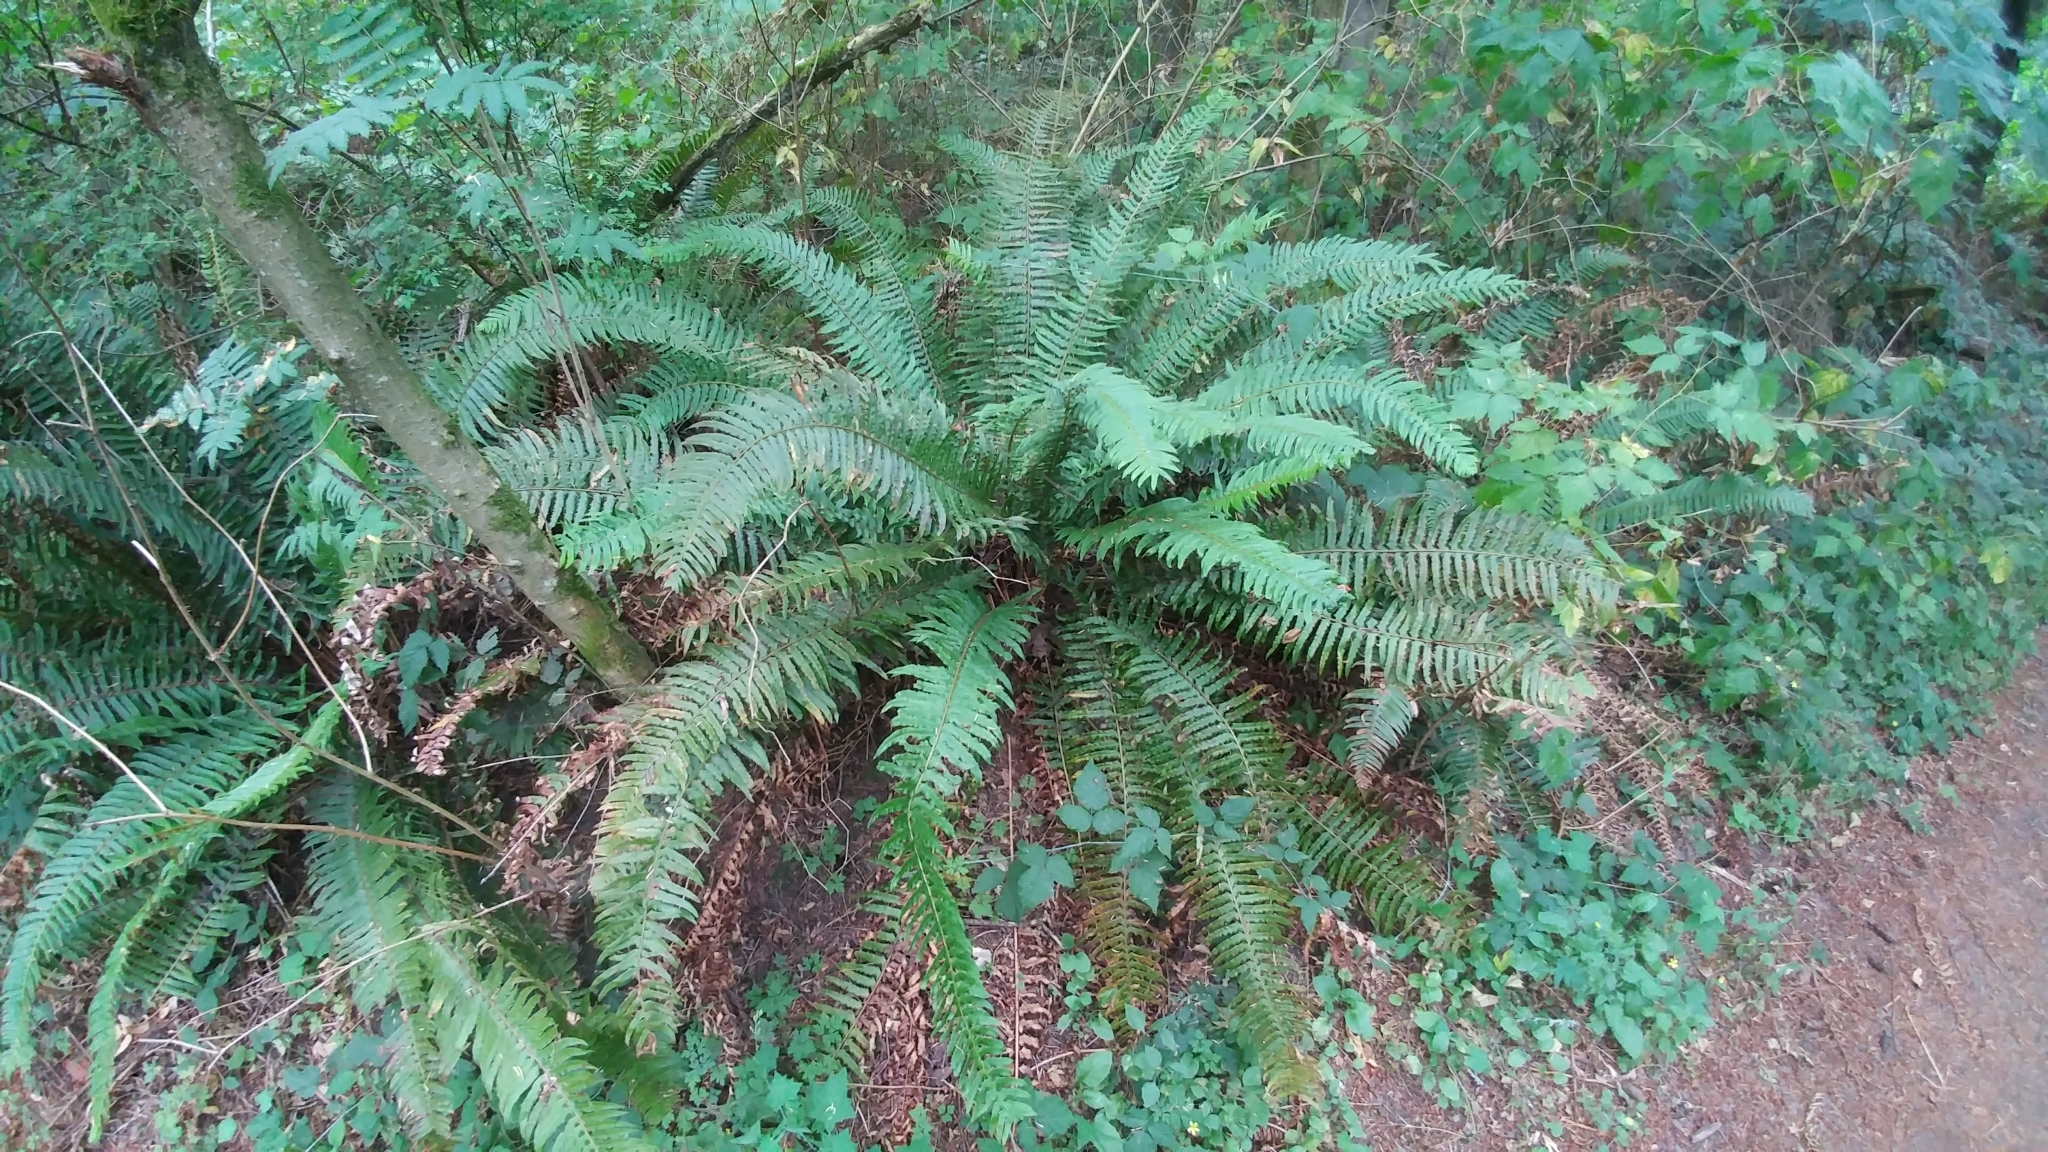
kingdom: Plantae
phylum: Tracheophyta
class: Polypodiopsida
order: Polypodiales
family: Dryopteridaceae
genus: Polystichum
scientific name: Polystichum munitum
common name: Western sword-fern
